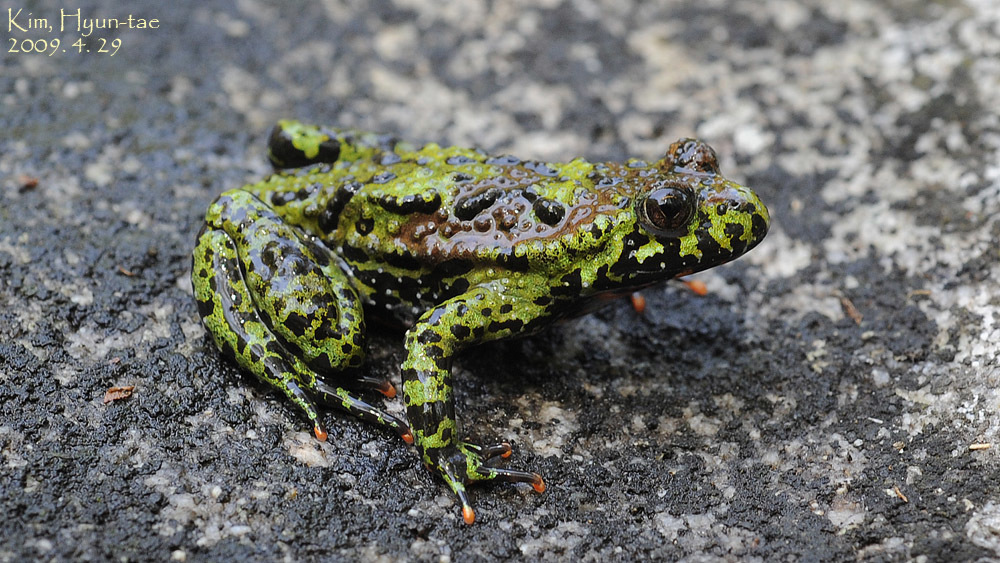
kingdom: Animalia
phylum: Chordata
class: Amphibia
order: Anura
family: Bombinatoridae
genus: Bombina
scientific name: Bombina orientalis
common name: Oriental firebelly toad
